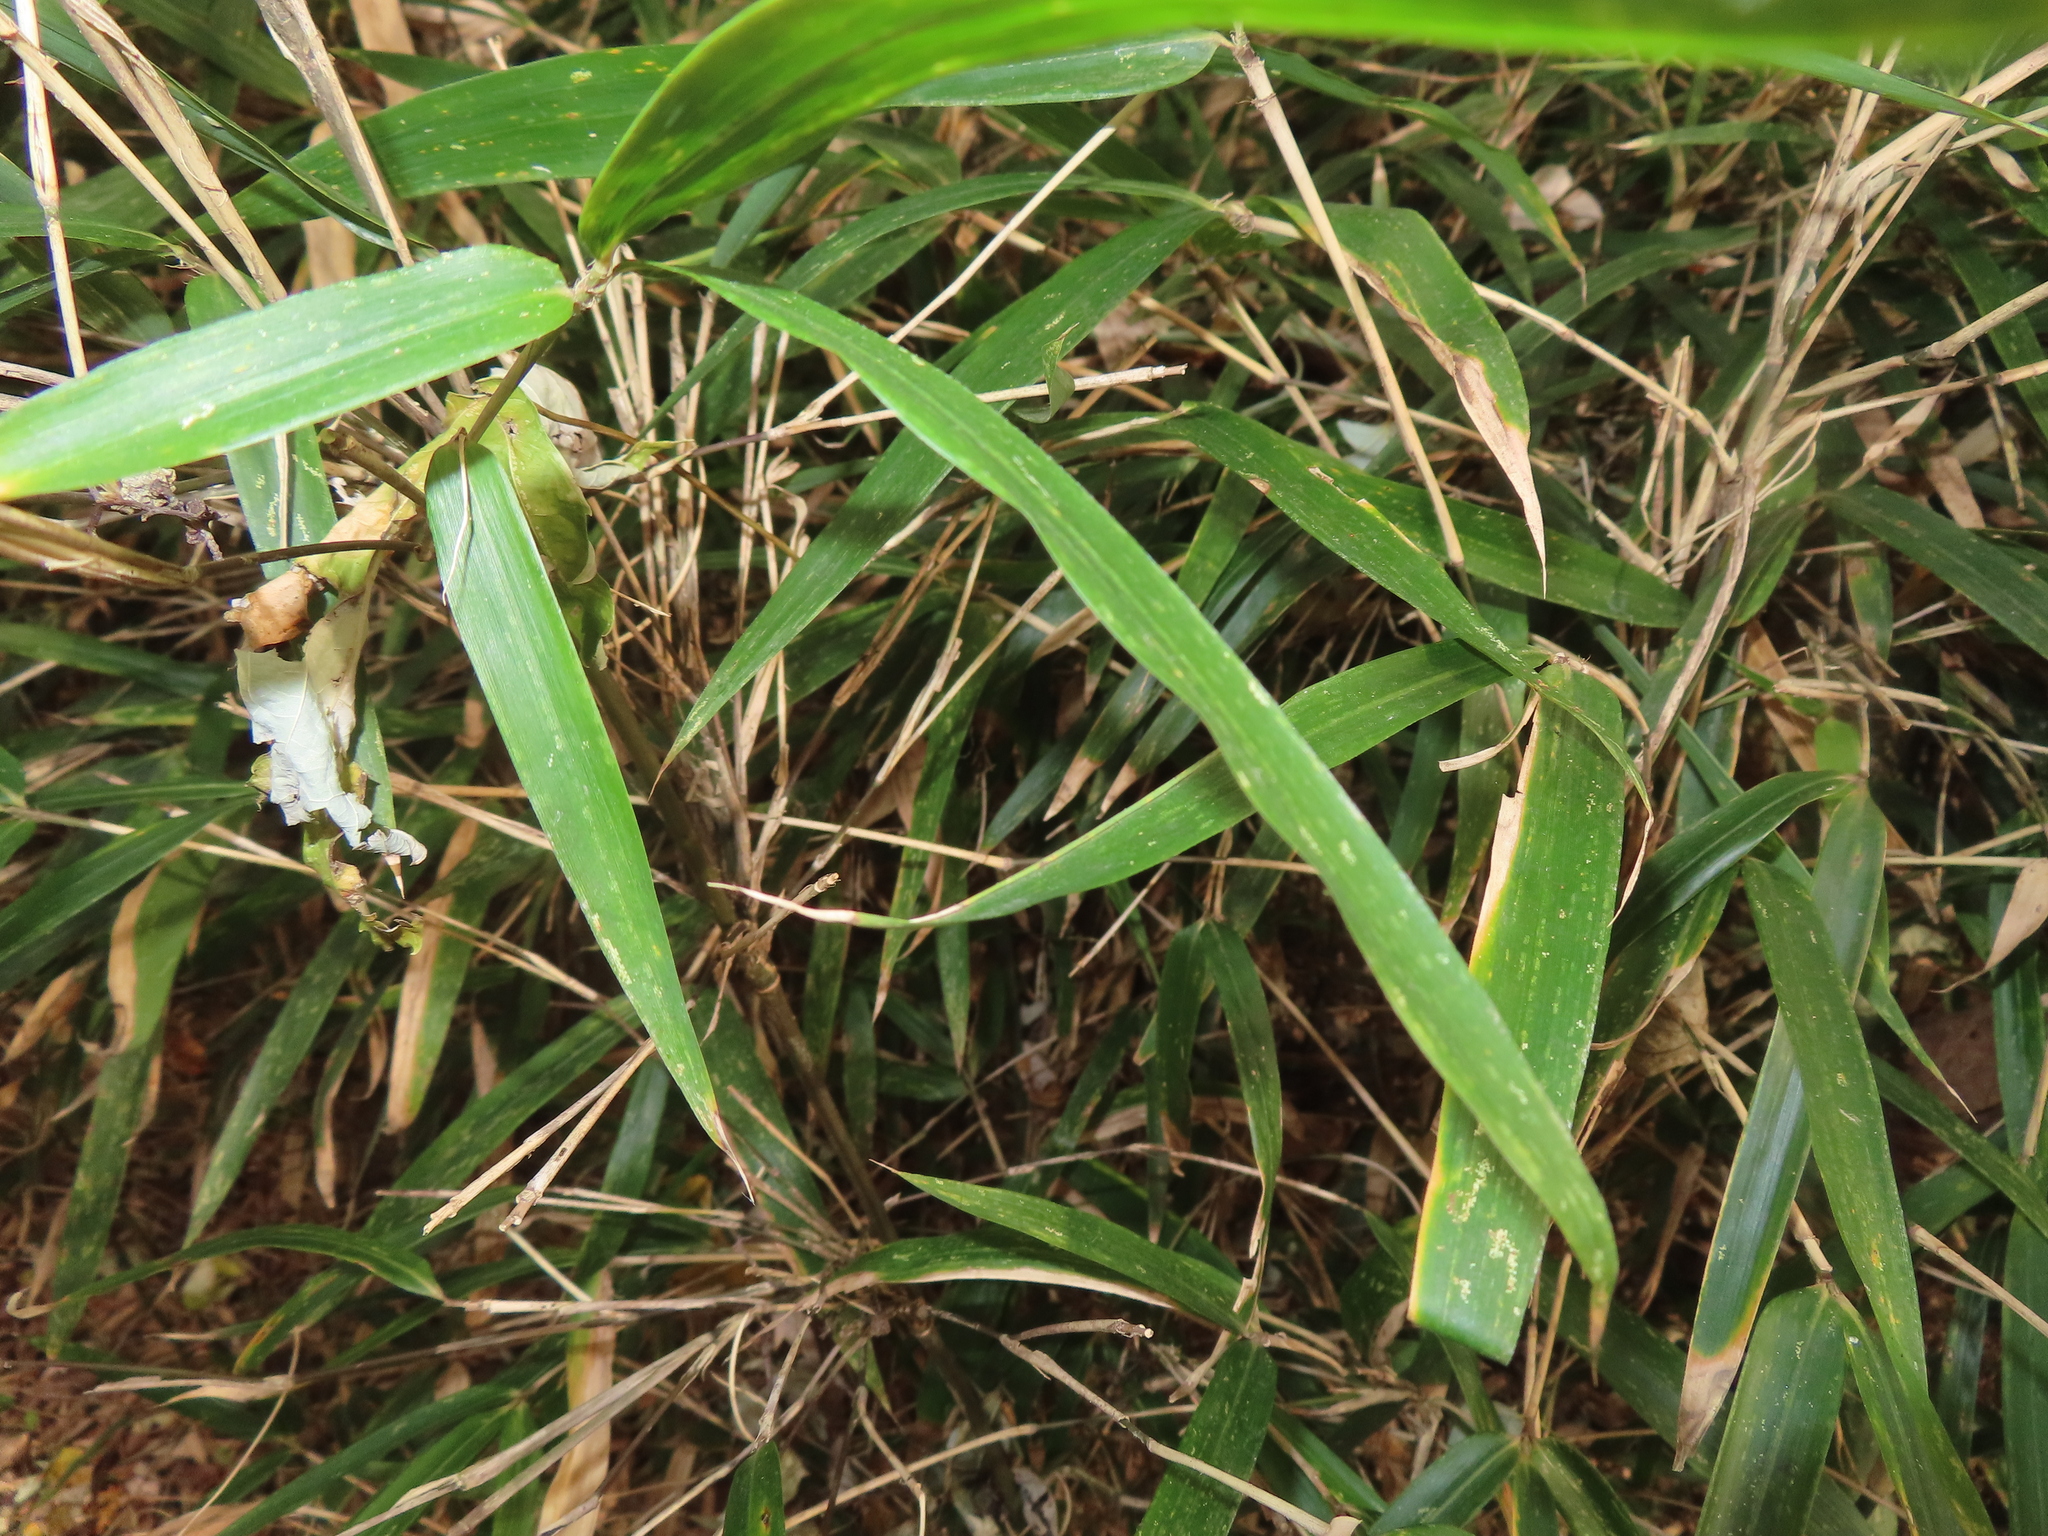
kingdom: Plantae
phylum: Tracheophyta
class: Liliopsida
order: Poales
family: Poaceae
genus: Arundinaria
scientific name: Arundinaria gigantea
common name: Giant cane
